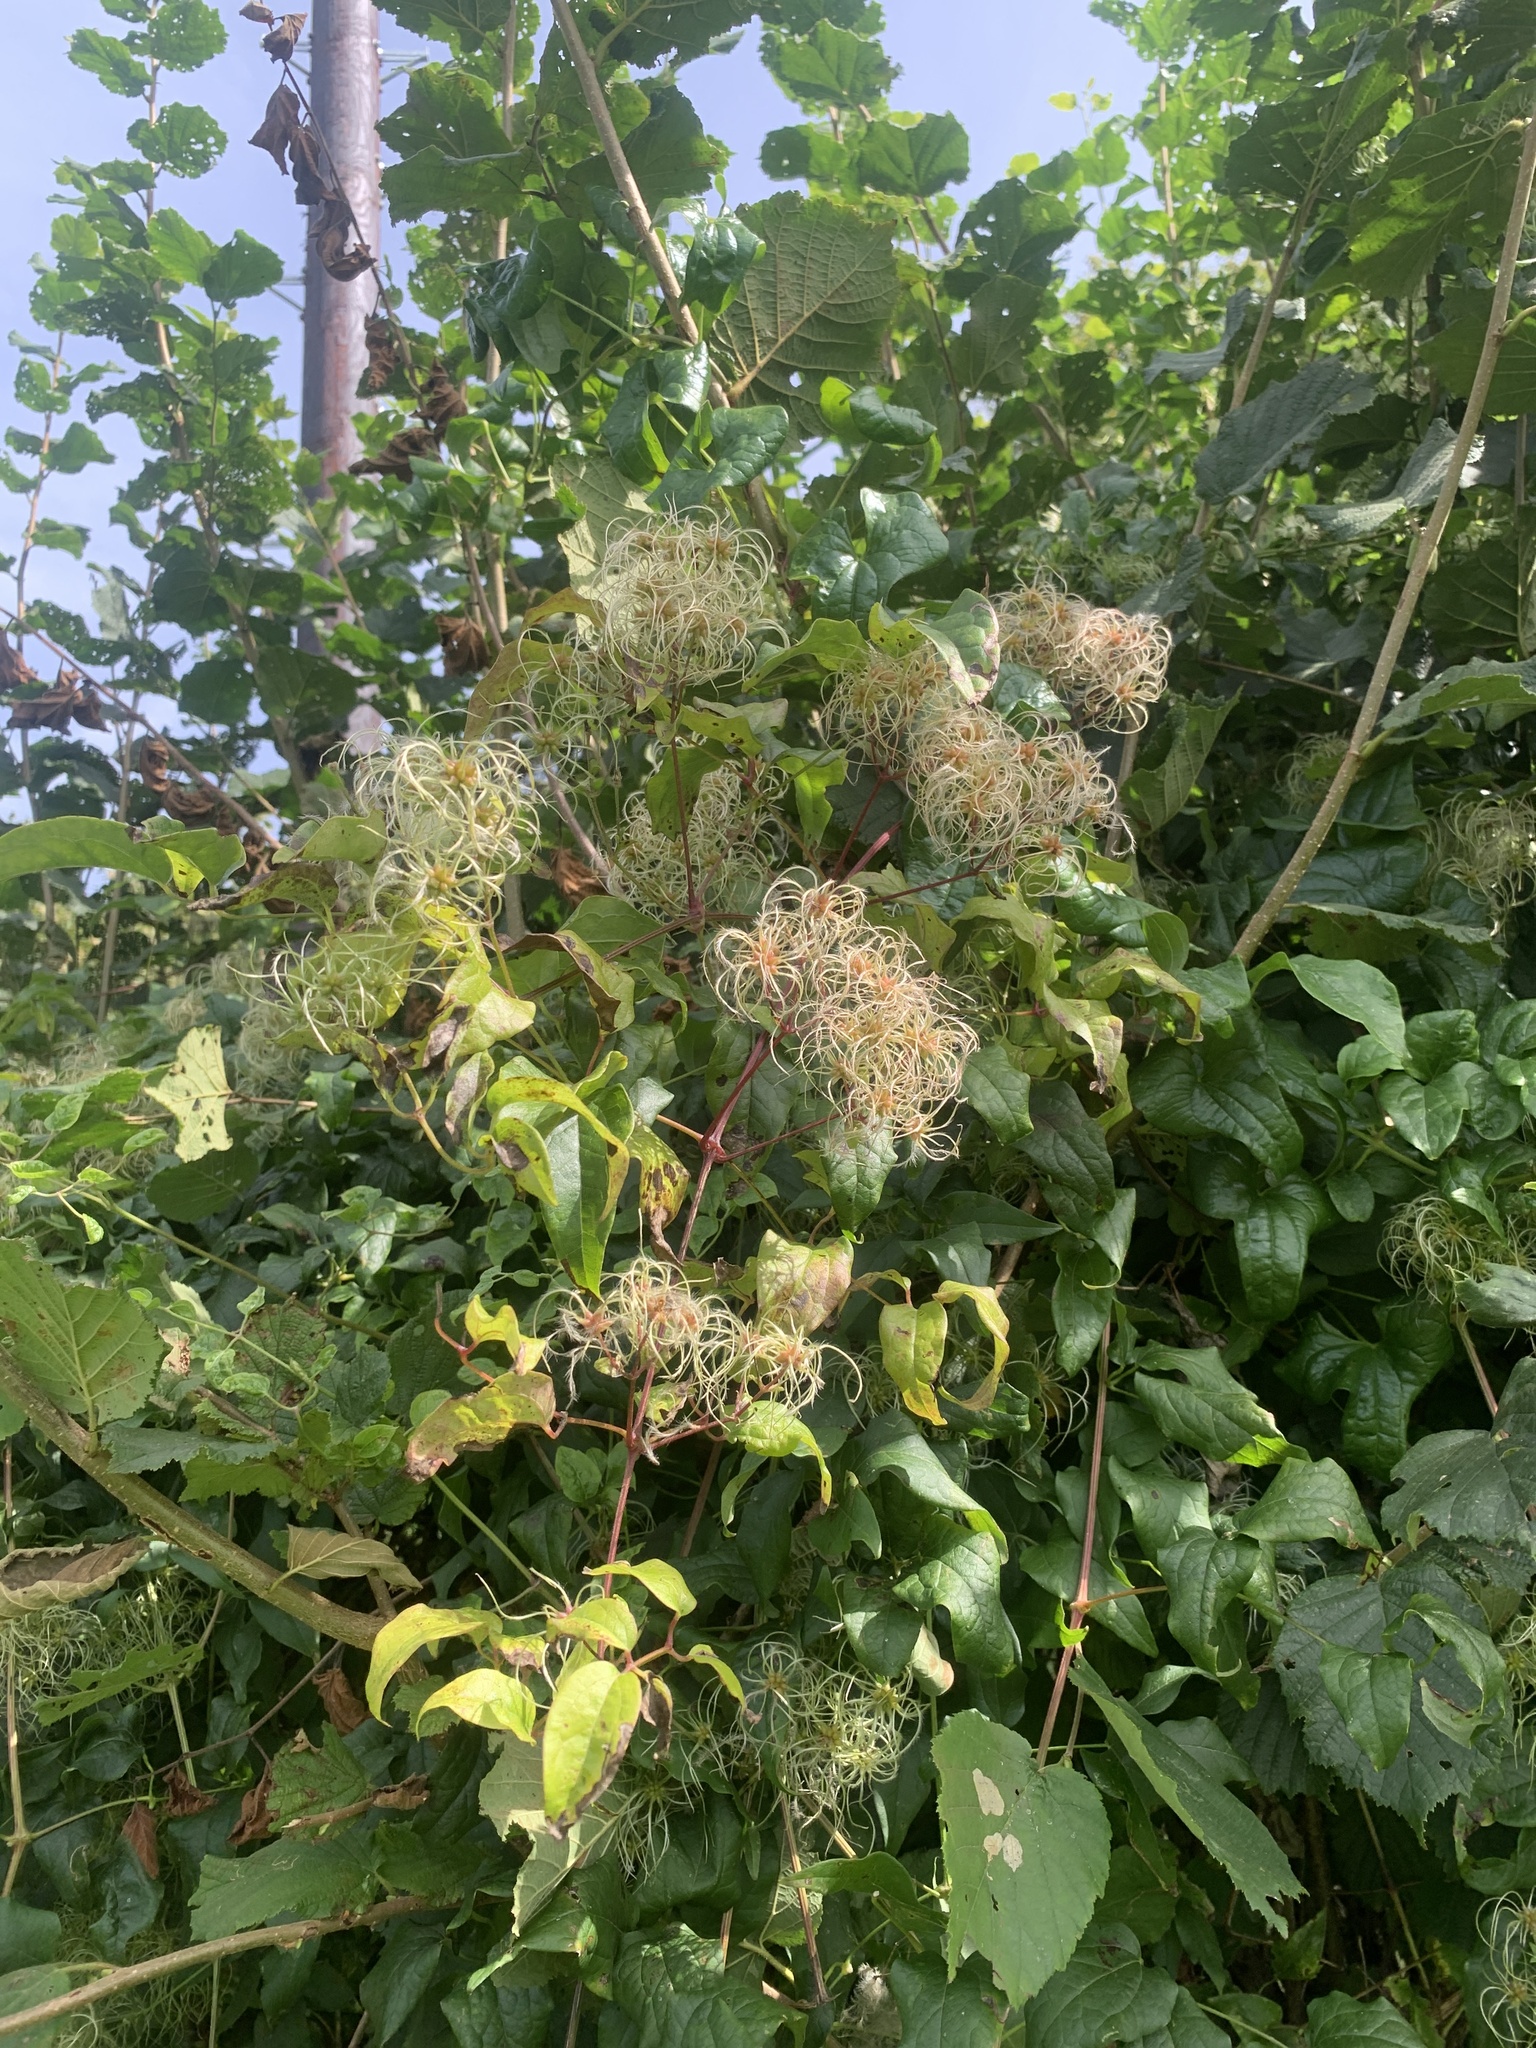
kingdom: Plantae
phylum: Tracheophyta
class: Magnoliopsida
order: Ranunculales
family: Ranunculaceae
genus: Clematis
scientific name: Clematis vitalba
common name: Evergreen clematis
